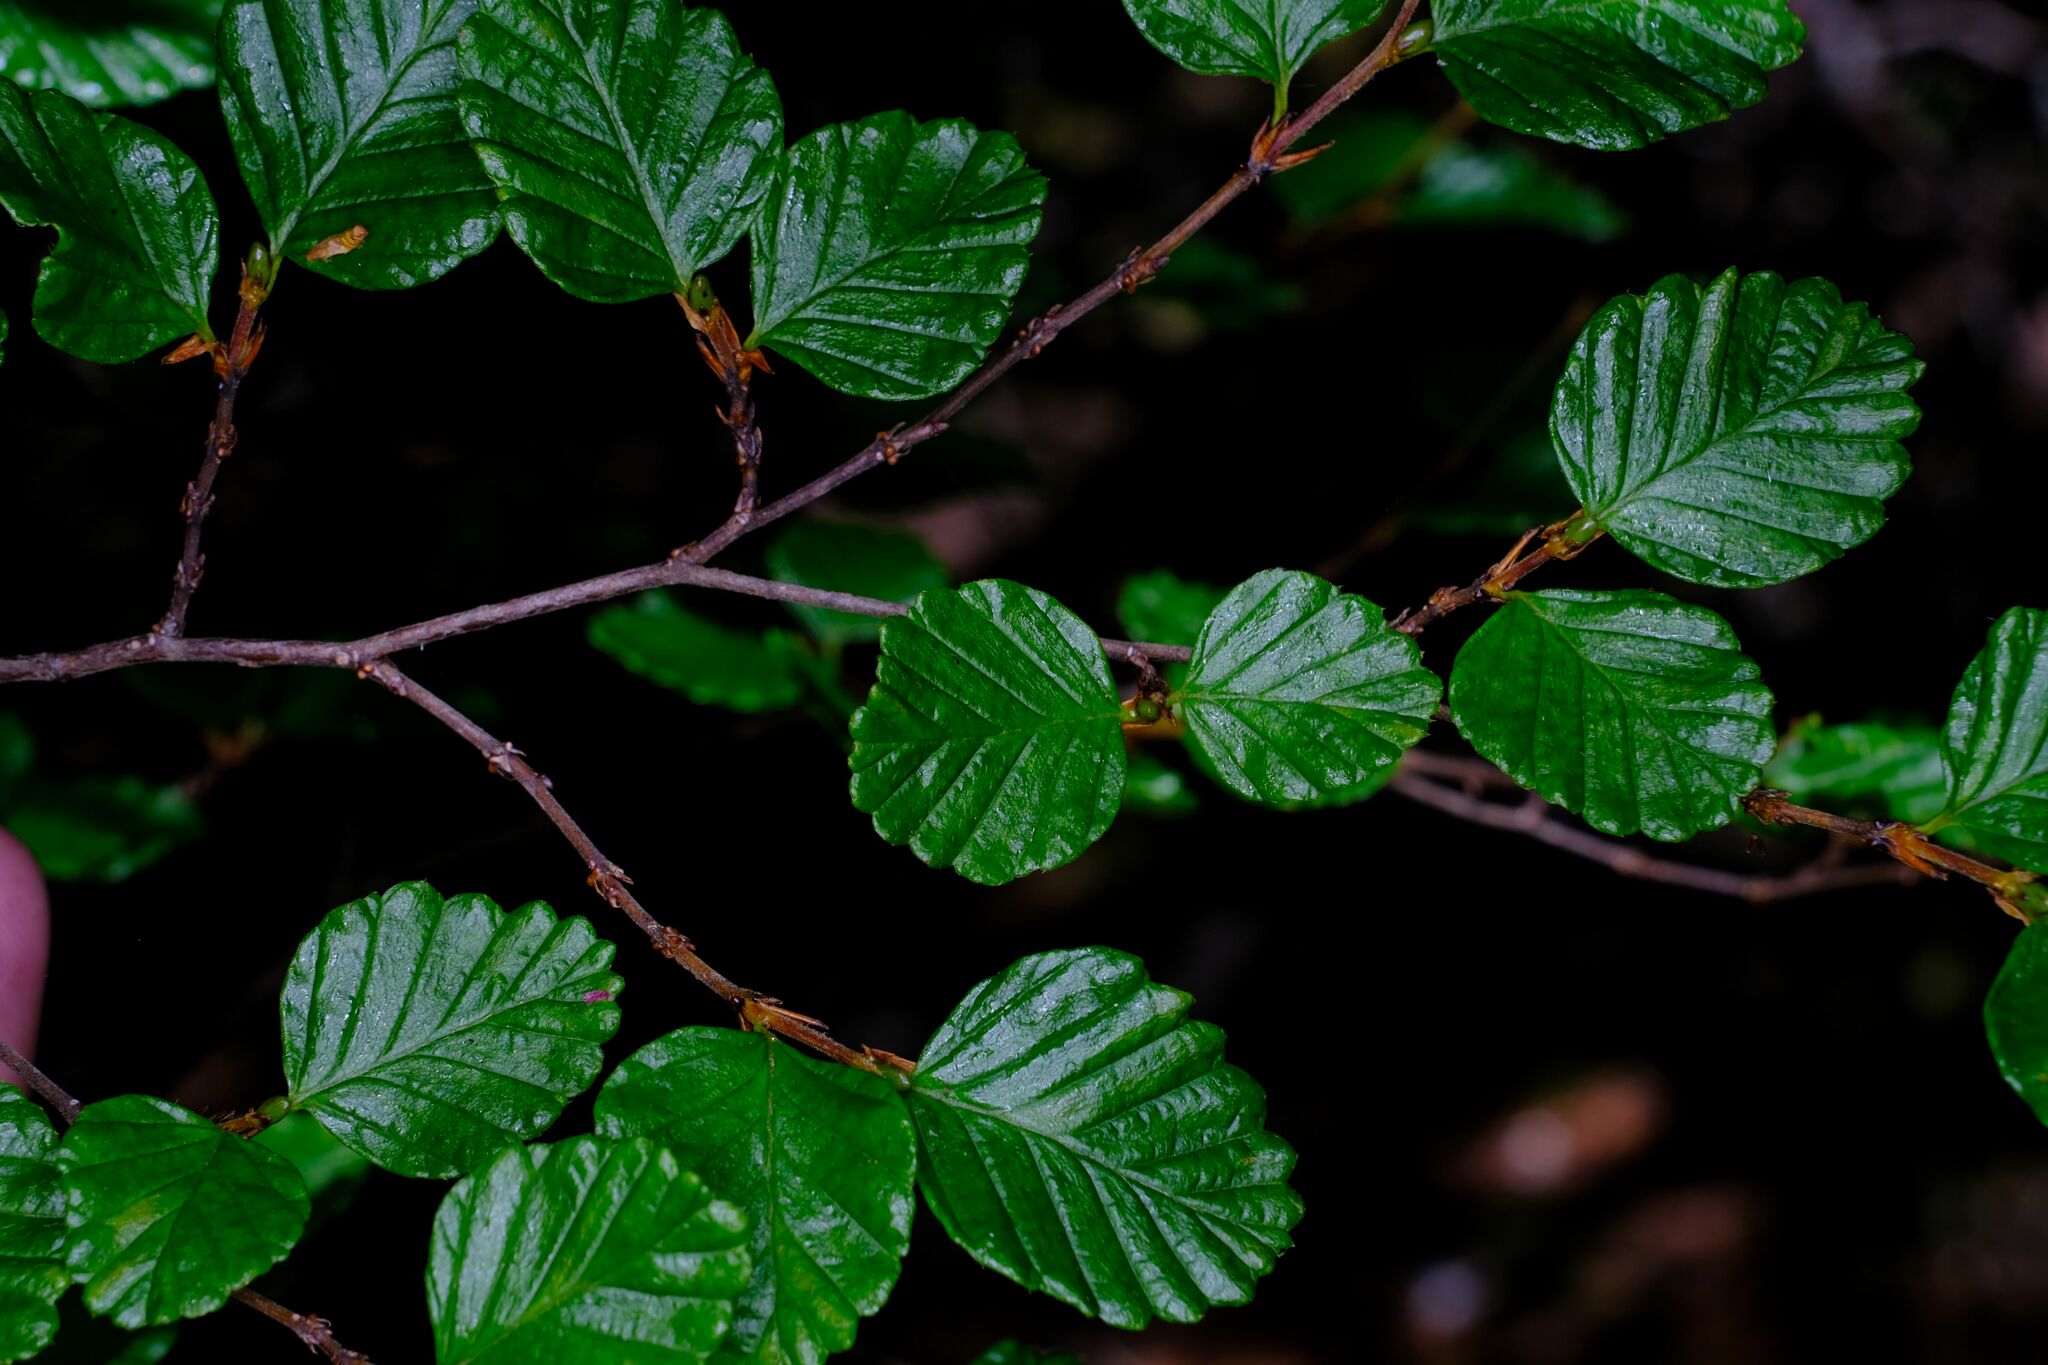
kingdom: Plantae
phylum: Tracheophyta
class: Magnoliopsida
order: Fagales
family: Nothofagaceae
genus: Nothofagus
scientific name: Nothofagus gunnii
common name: Tanglefoot
